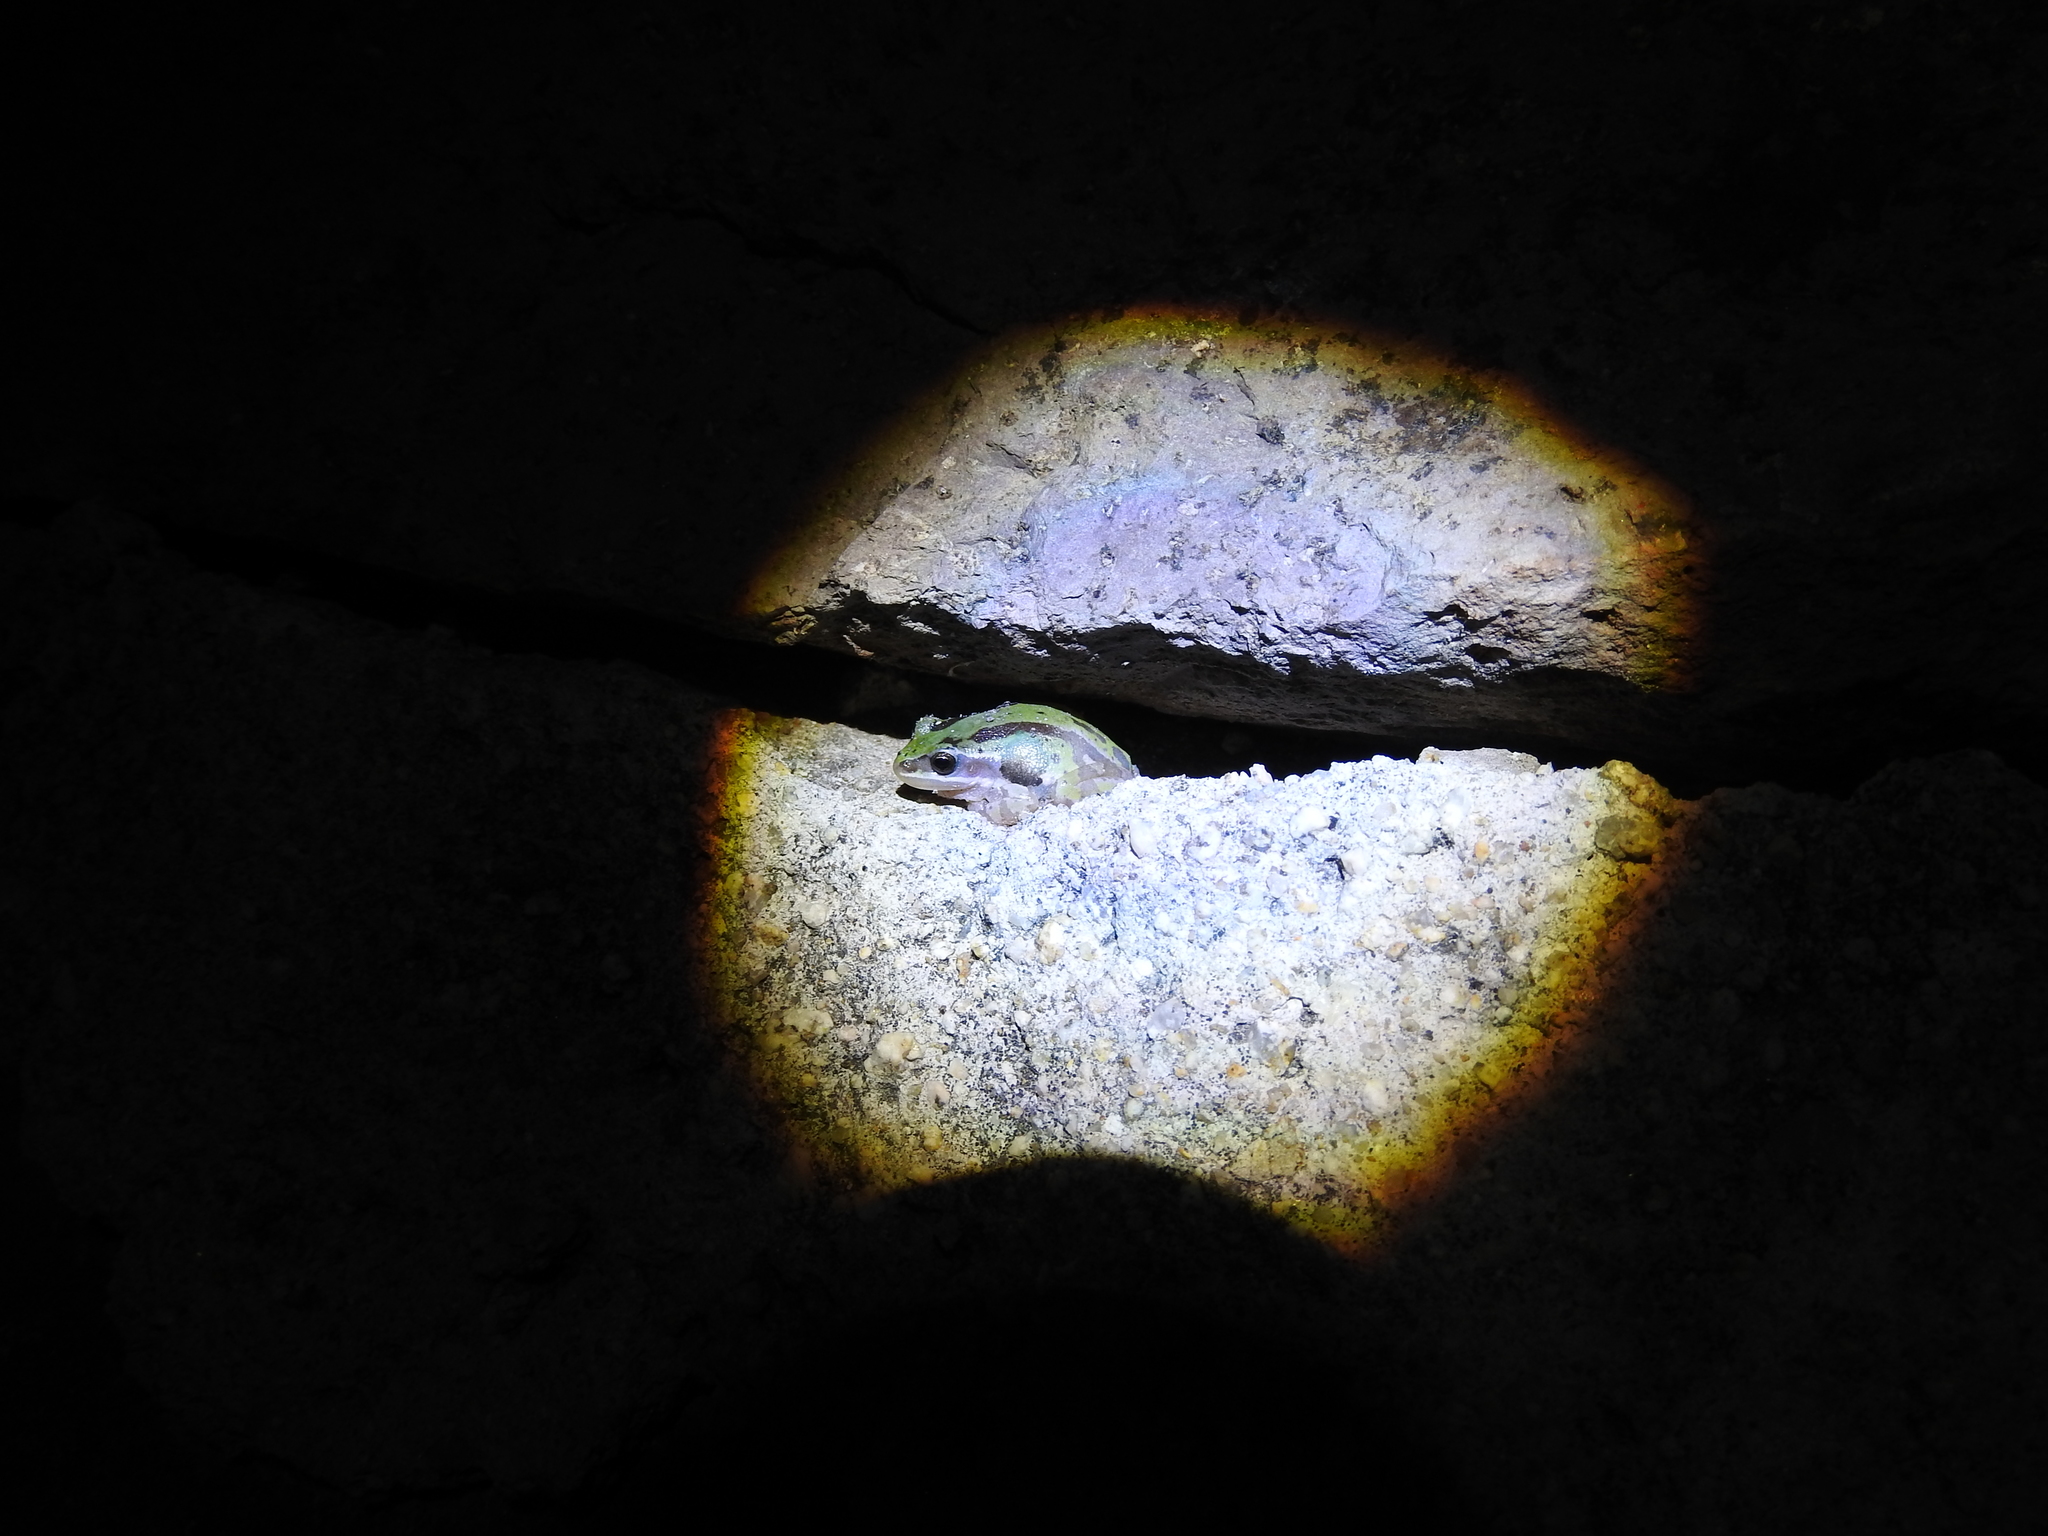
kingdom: Animalia
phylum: Chordata
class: Amphibia
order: Anura
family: Hylidae
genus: Dryophytes
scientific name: Dryophytes eximius
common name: Mountain treefrog
